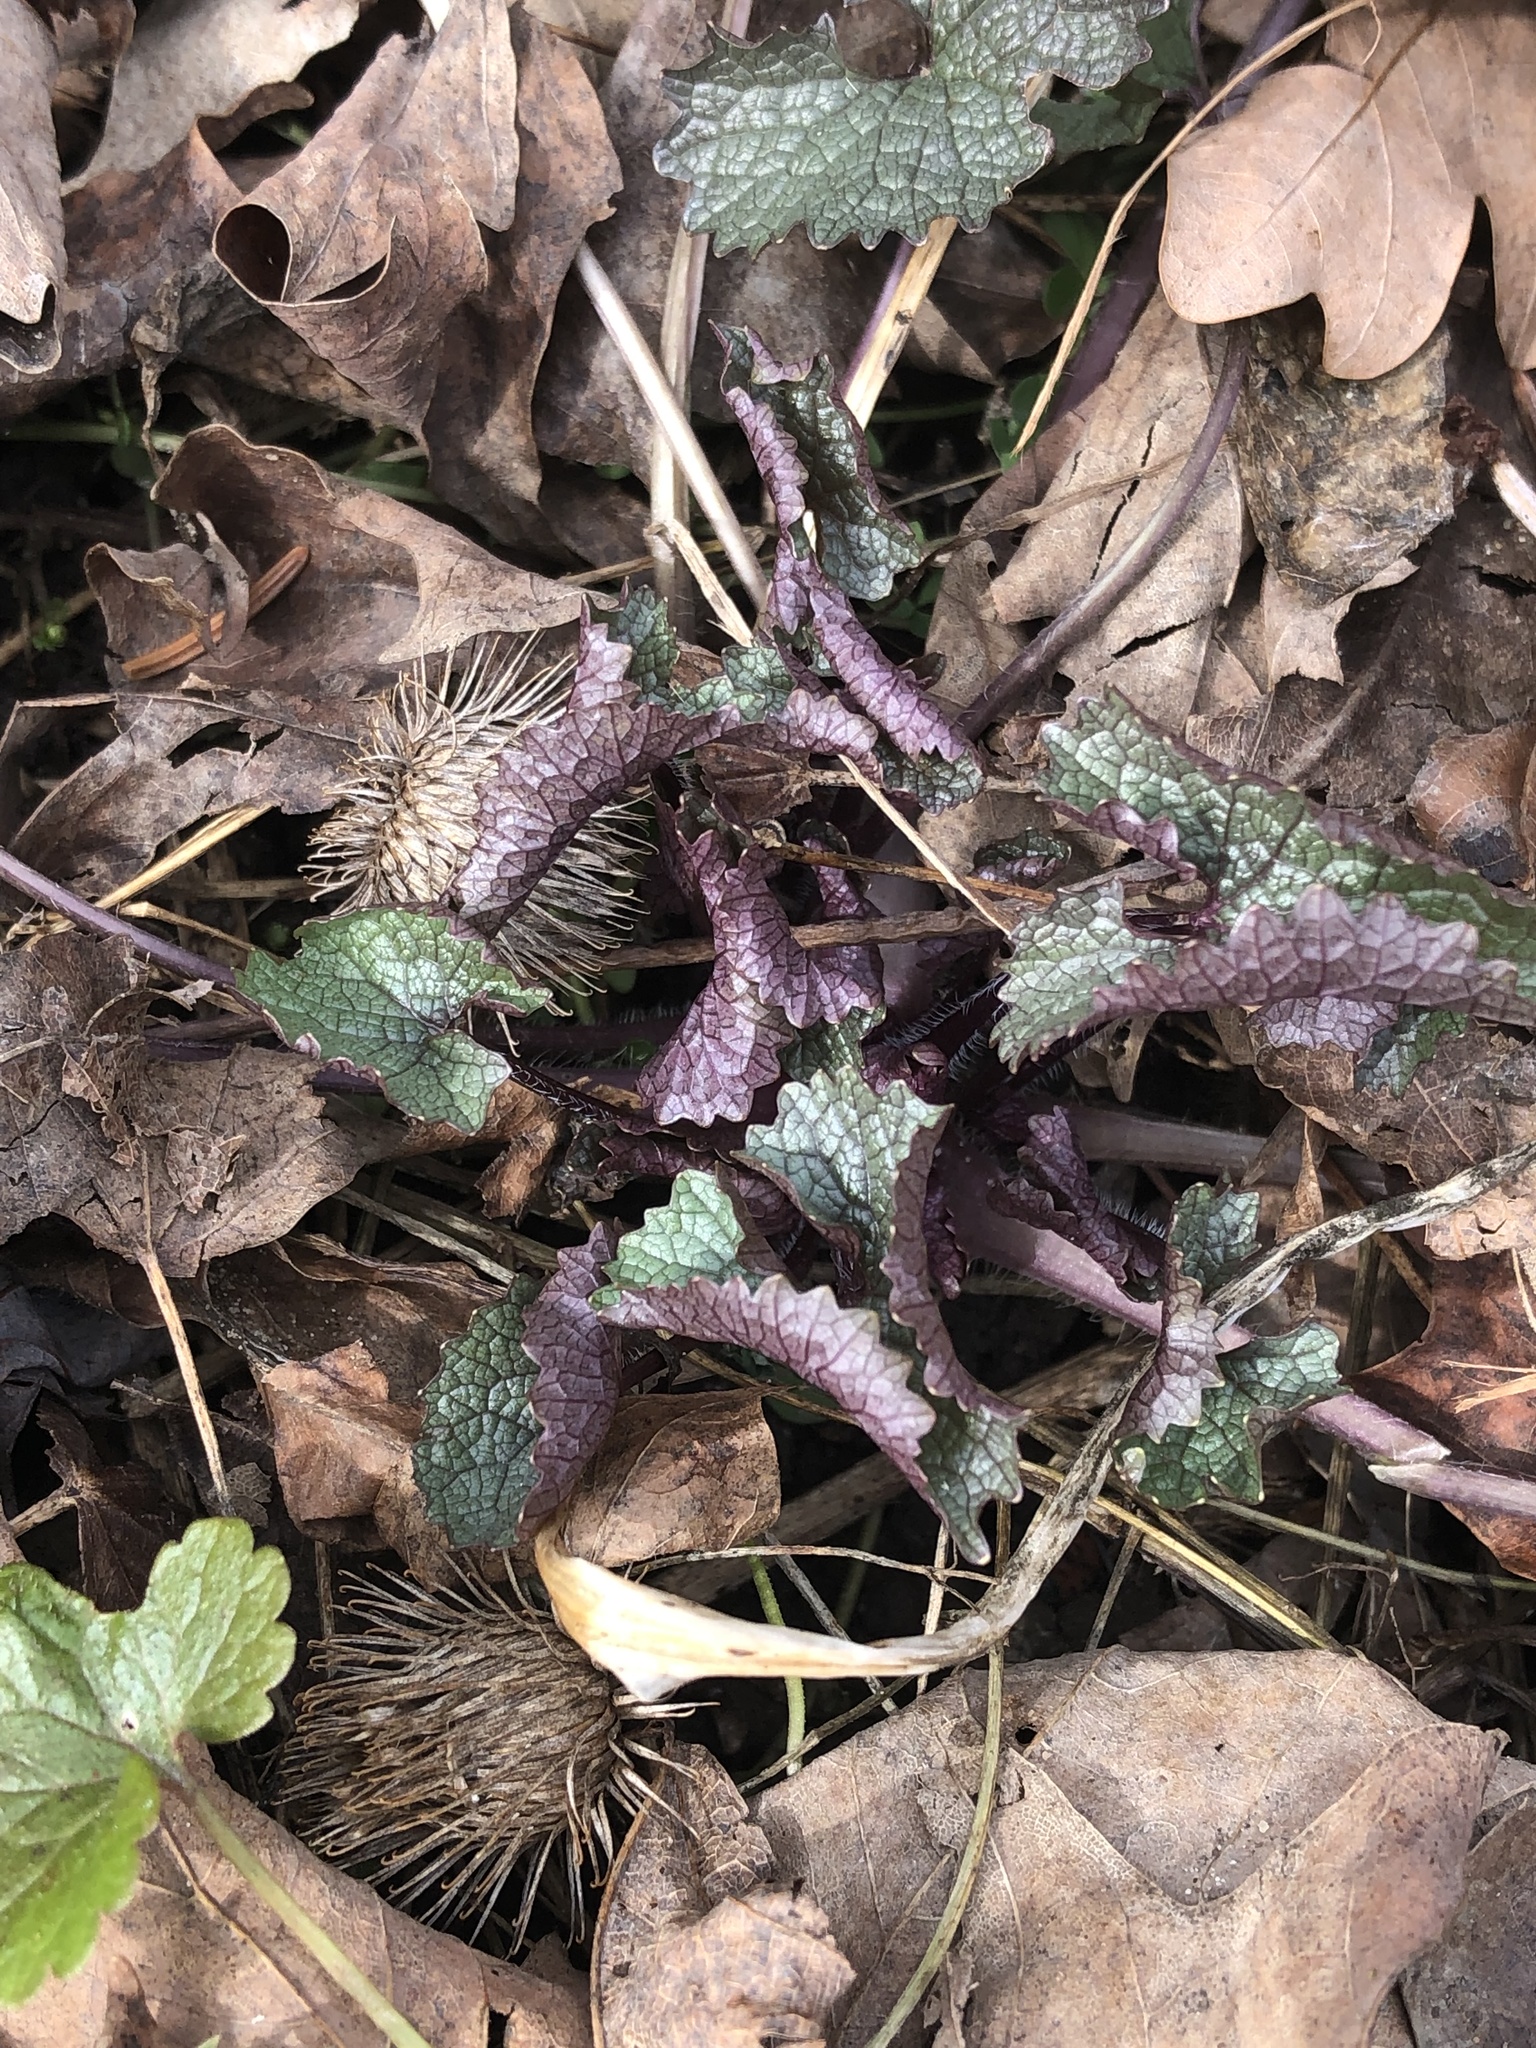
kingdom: Plantae
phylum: Tracheophyta
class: Magnoliopsida
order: Brassicales
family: Brassicaceae
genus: Alliaria
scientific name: Alliaria petiolata
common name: Garlic mustard
